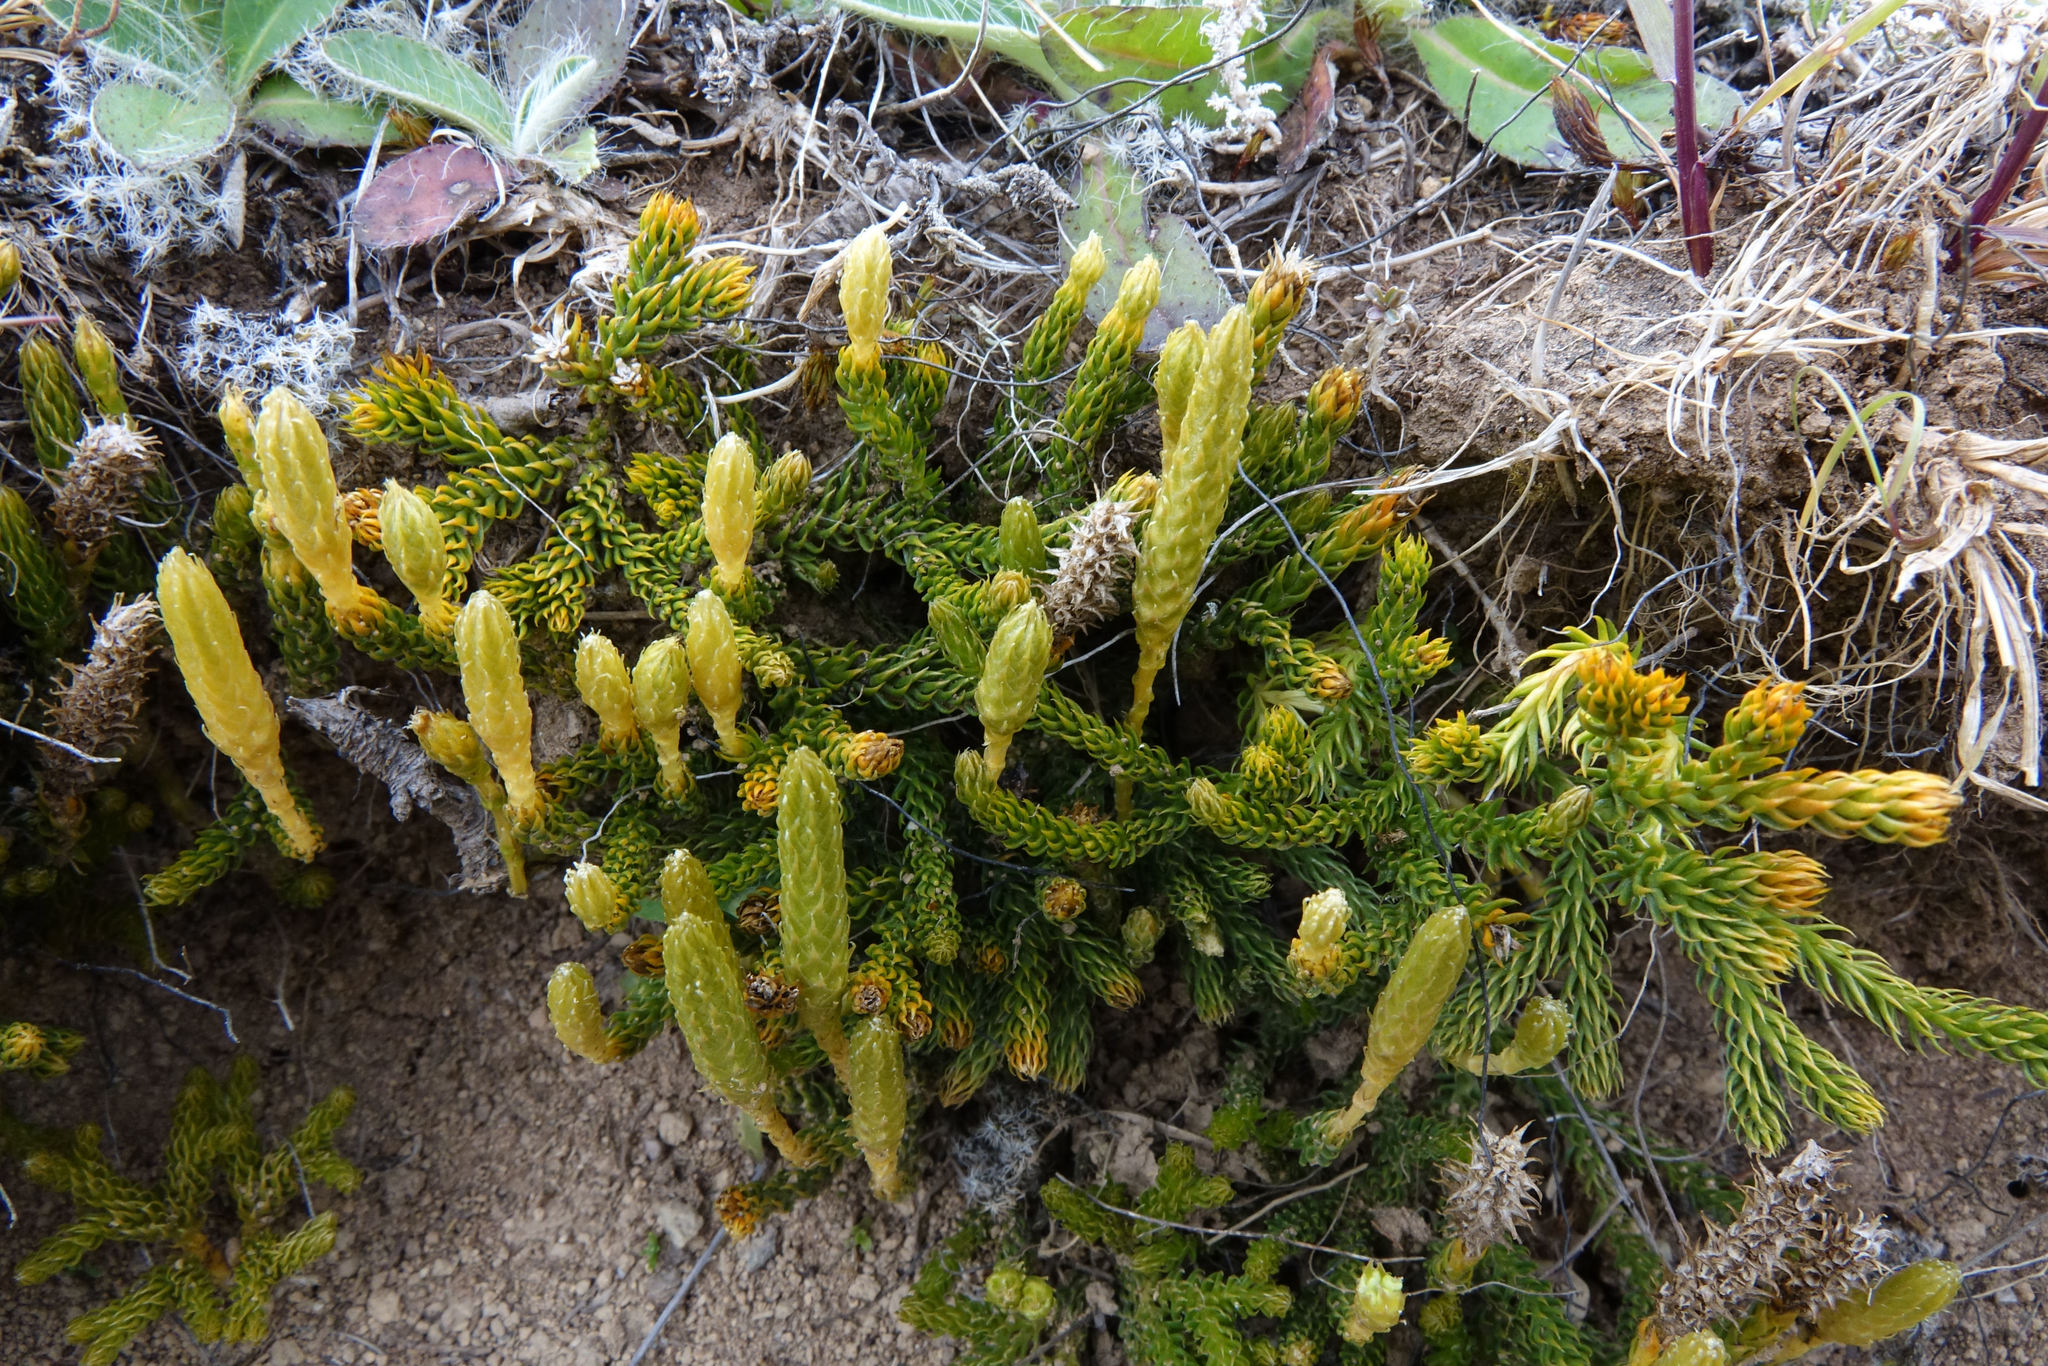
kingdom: Plantae
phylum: Tracheophyta
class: Lycopodiopsida
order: Lycopodiales
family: Lycopodiaceae
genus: Austrolycopodium
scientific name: Austrolycopodium fastigiatum
